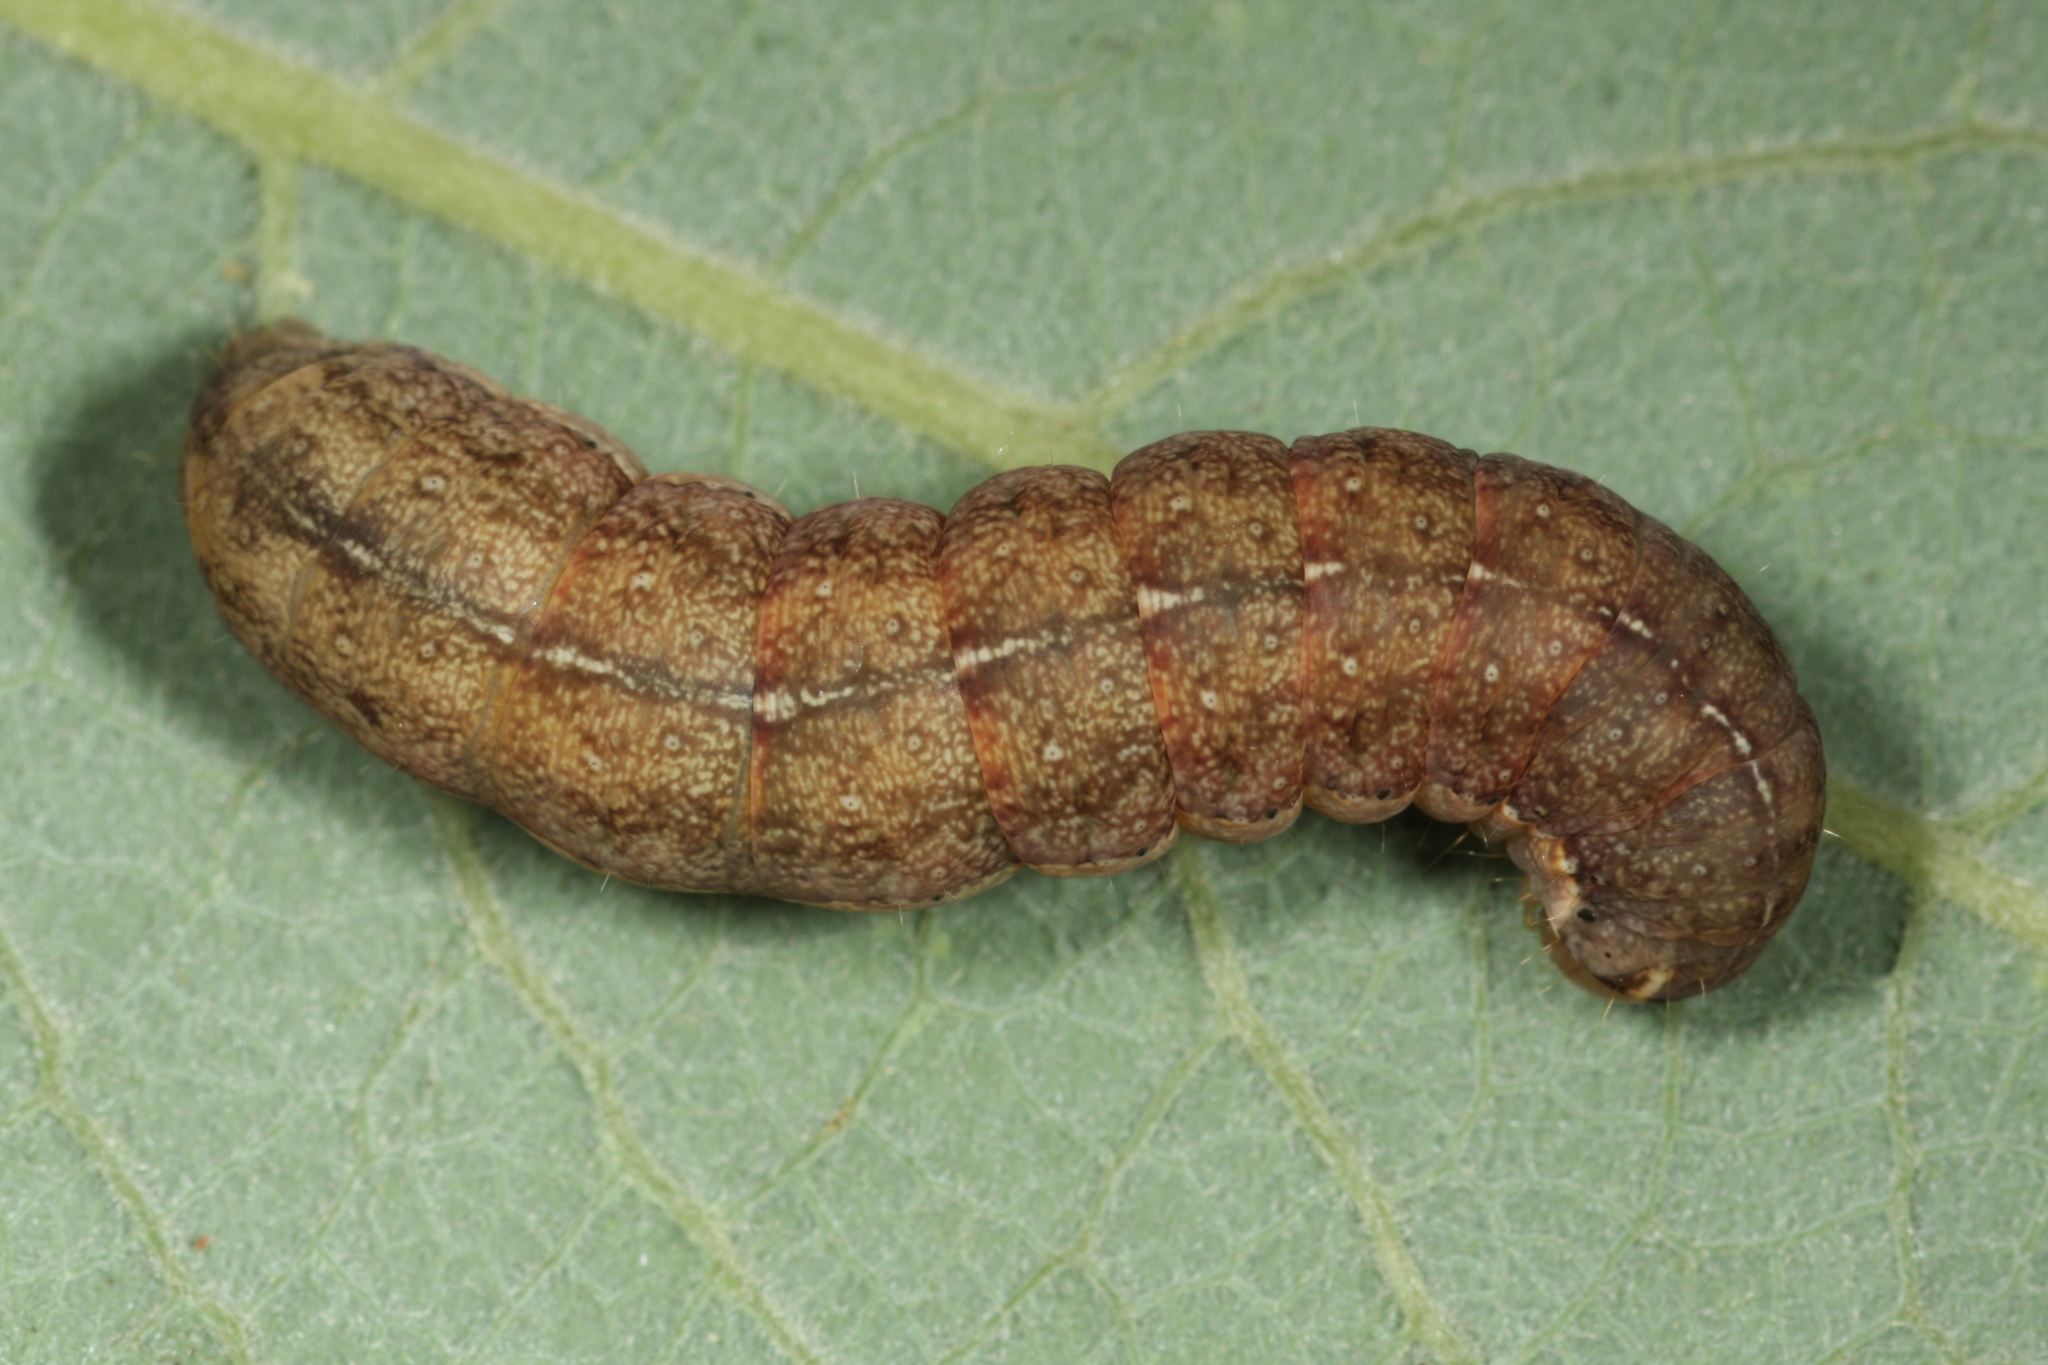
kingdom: Animalia
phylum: Arthropoda
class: Insecta
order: Lepidoptera
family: Noctuidae
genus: Agrochola
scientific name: Agrochola lota
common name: Red-line quaker
